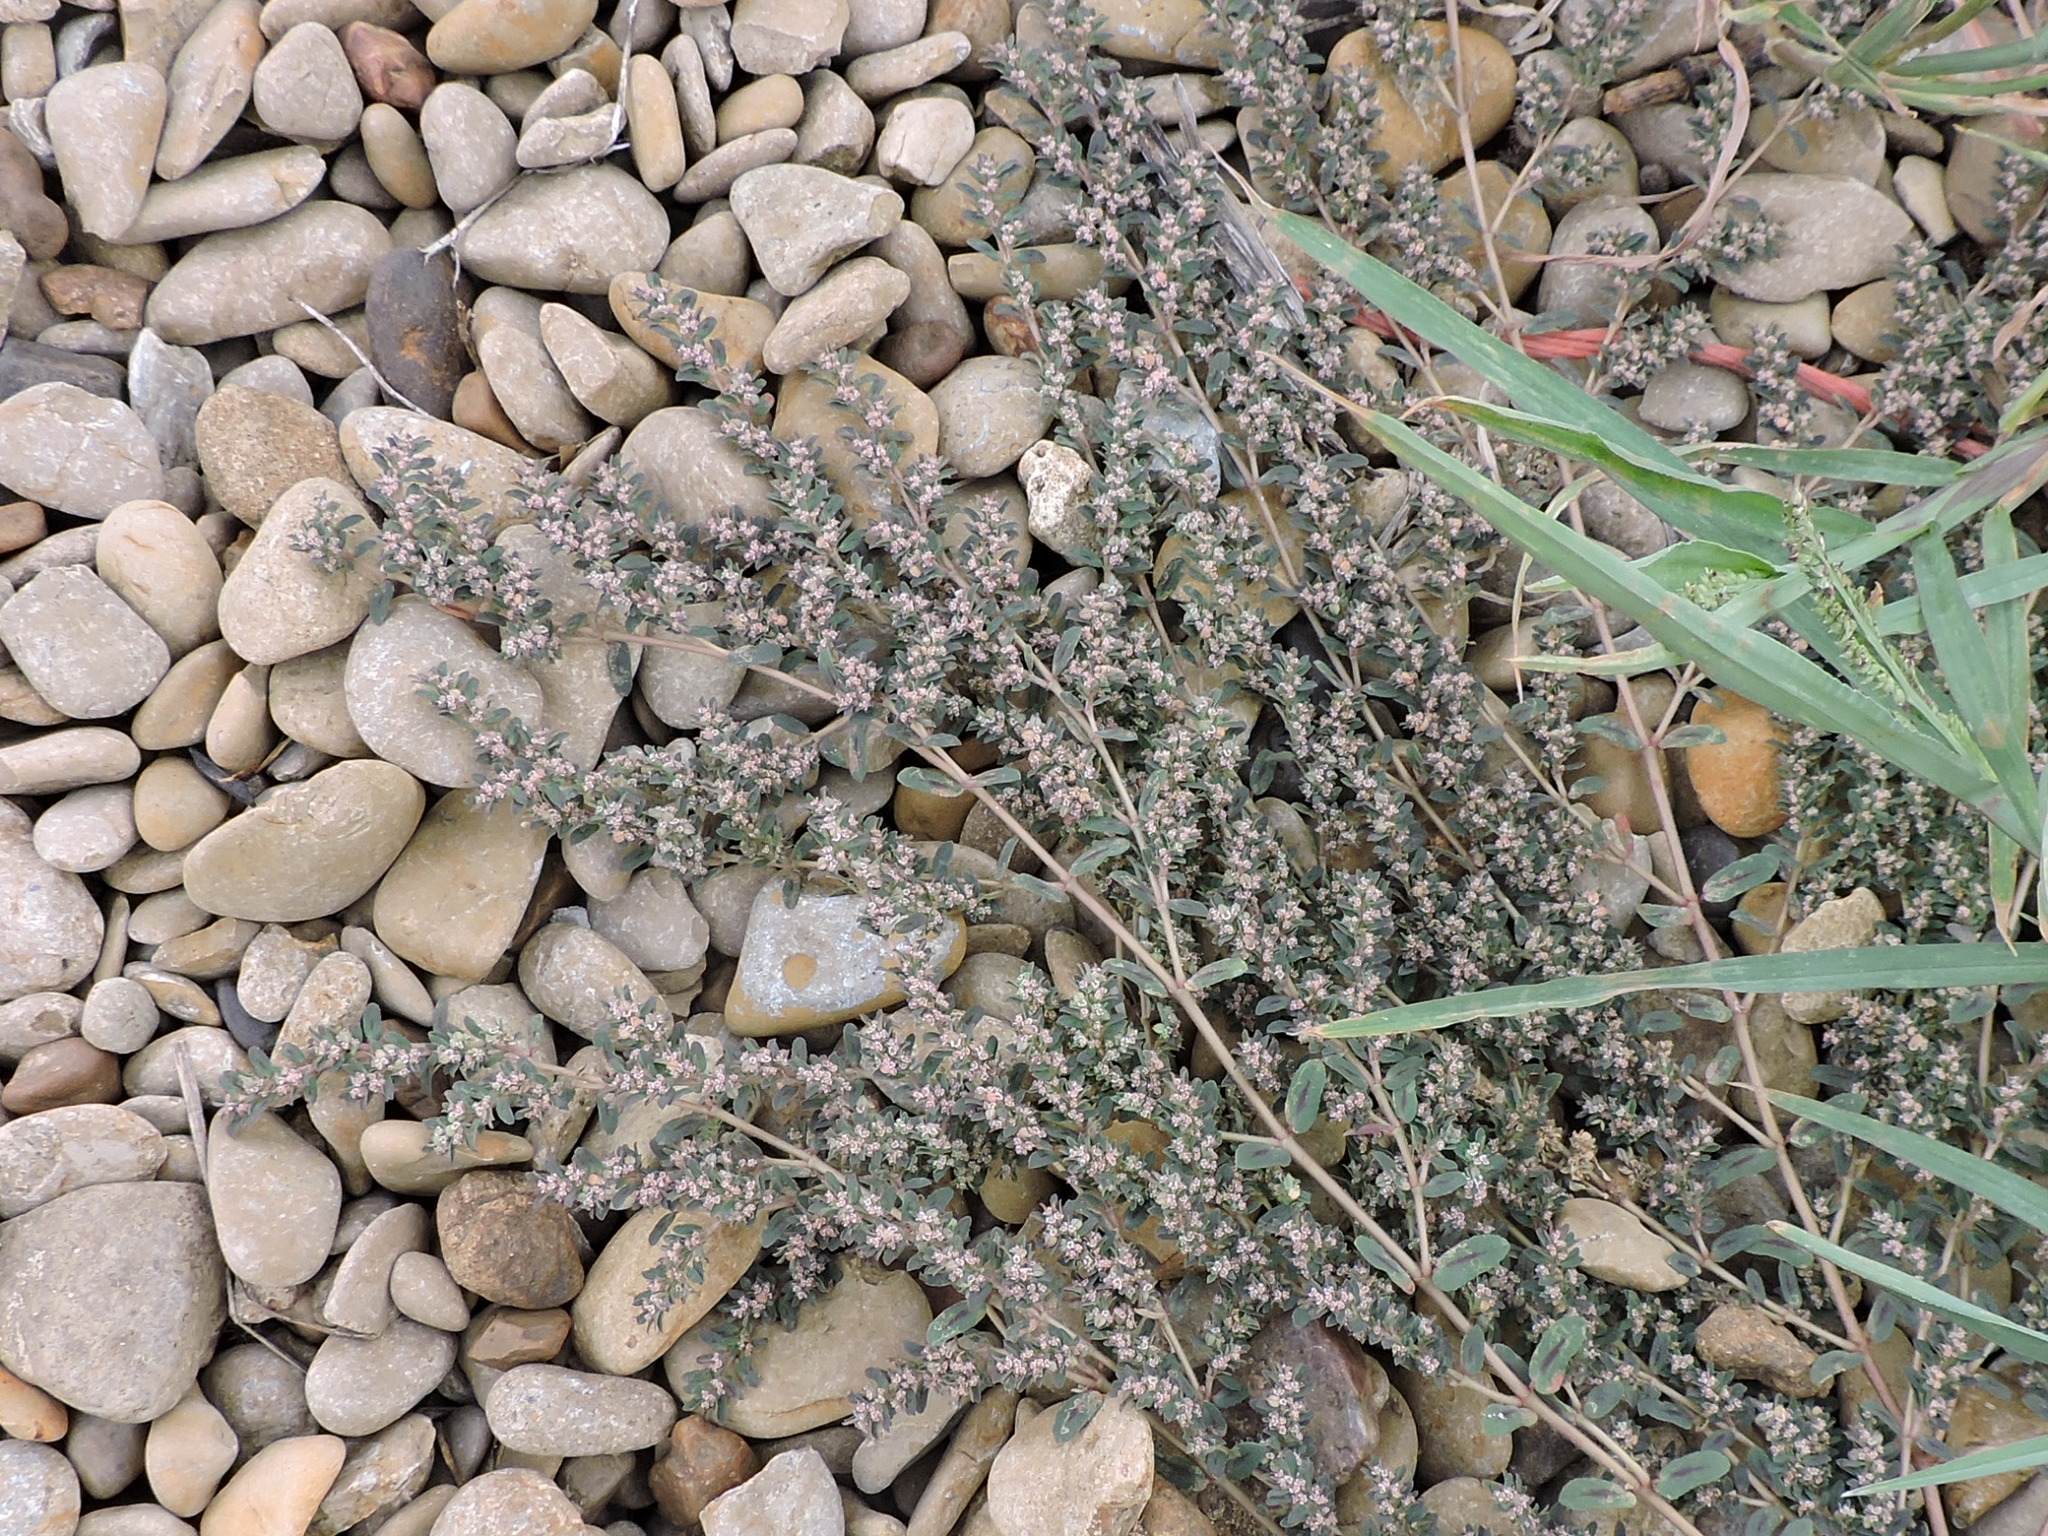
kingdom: Plantae
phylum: Tracheophyta
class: Magnoliopsida
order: Malpighiales
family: Euphorbiaceae
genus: Euphorbia
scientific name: Euphorbia maculata
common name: Spotted spurge
